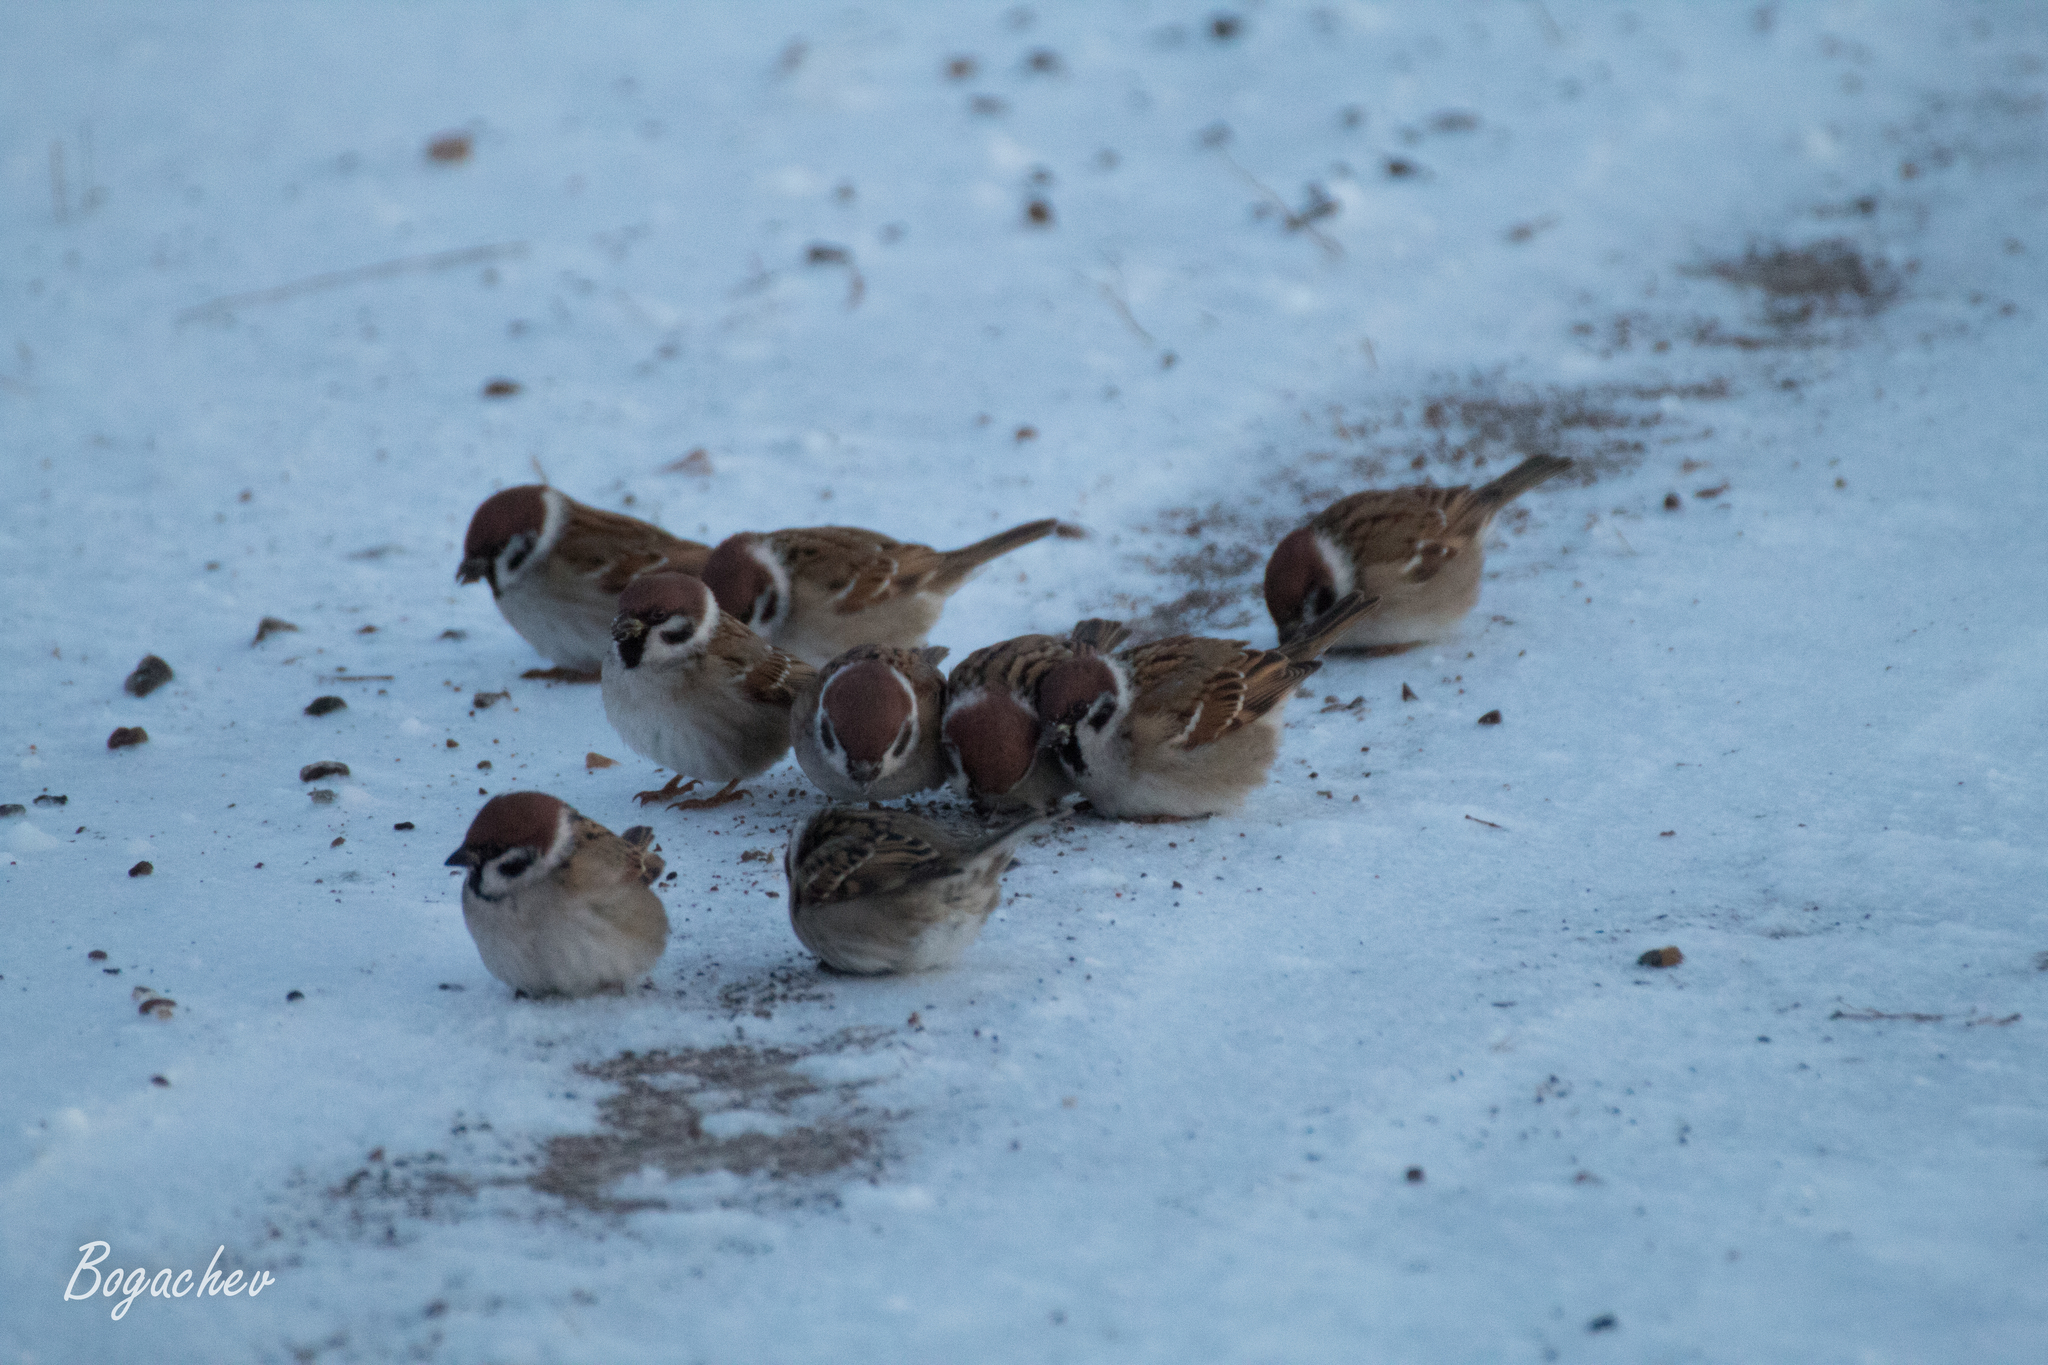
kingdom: Animalia
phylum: Chordata
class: Aves
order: Passeriformes
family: Passeridae
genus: Passer
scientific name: Passer montanus
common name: Eurasian tree sparrow
